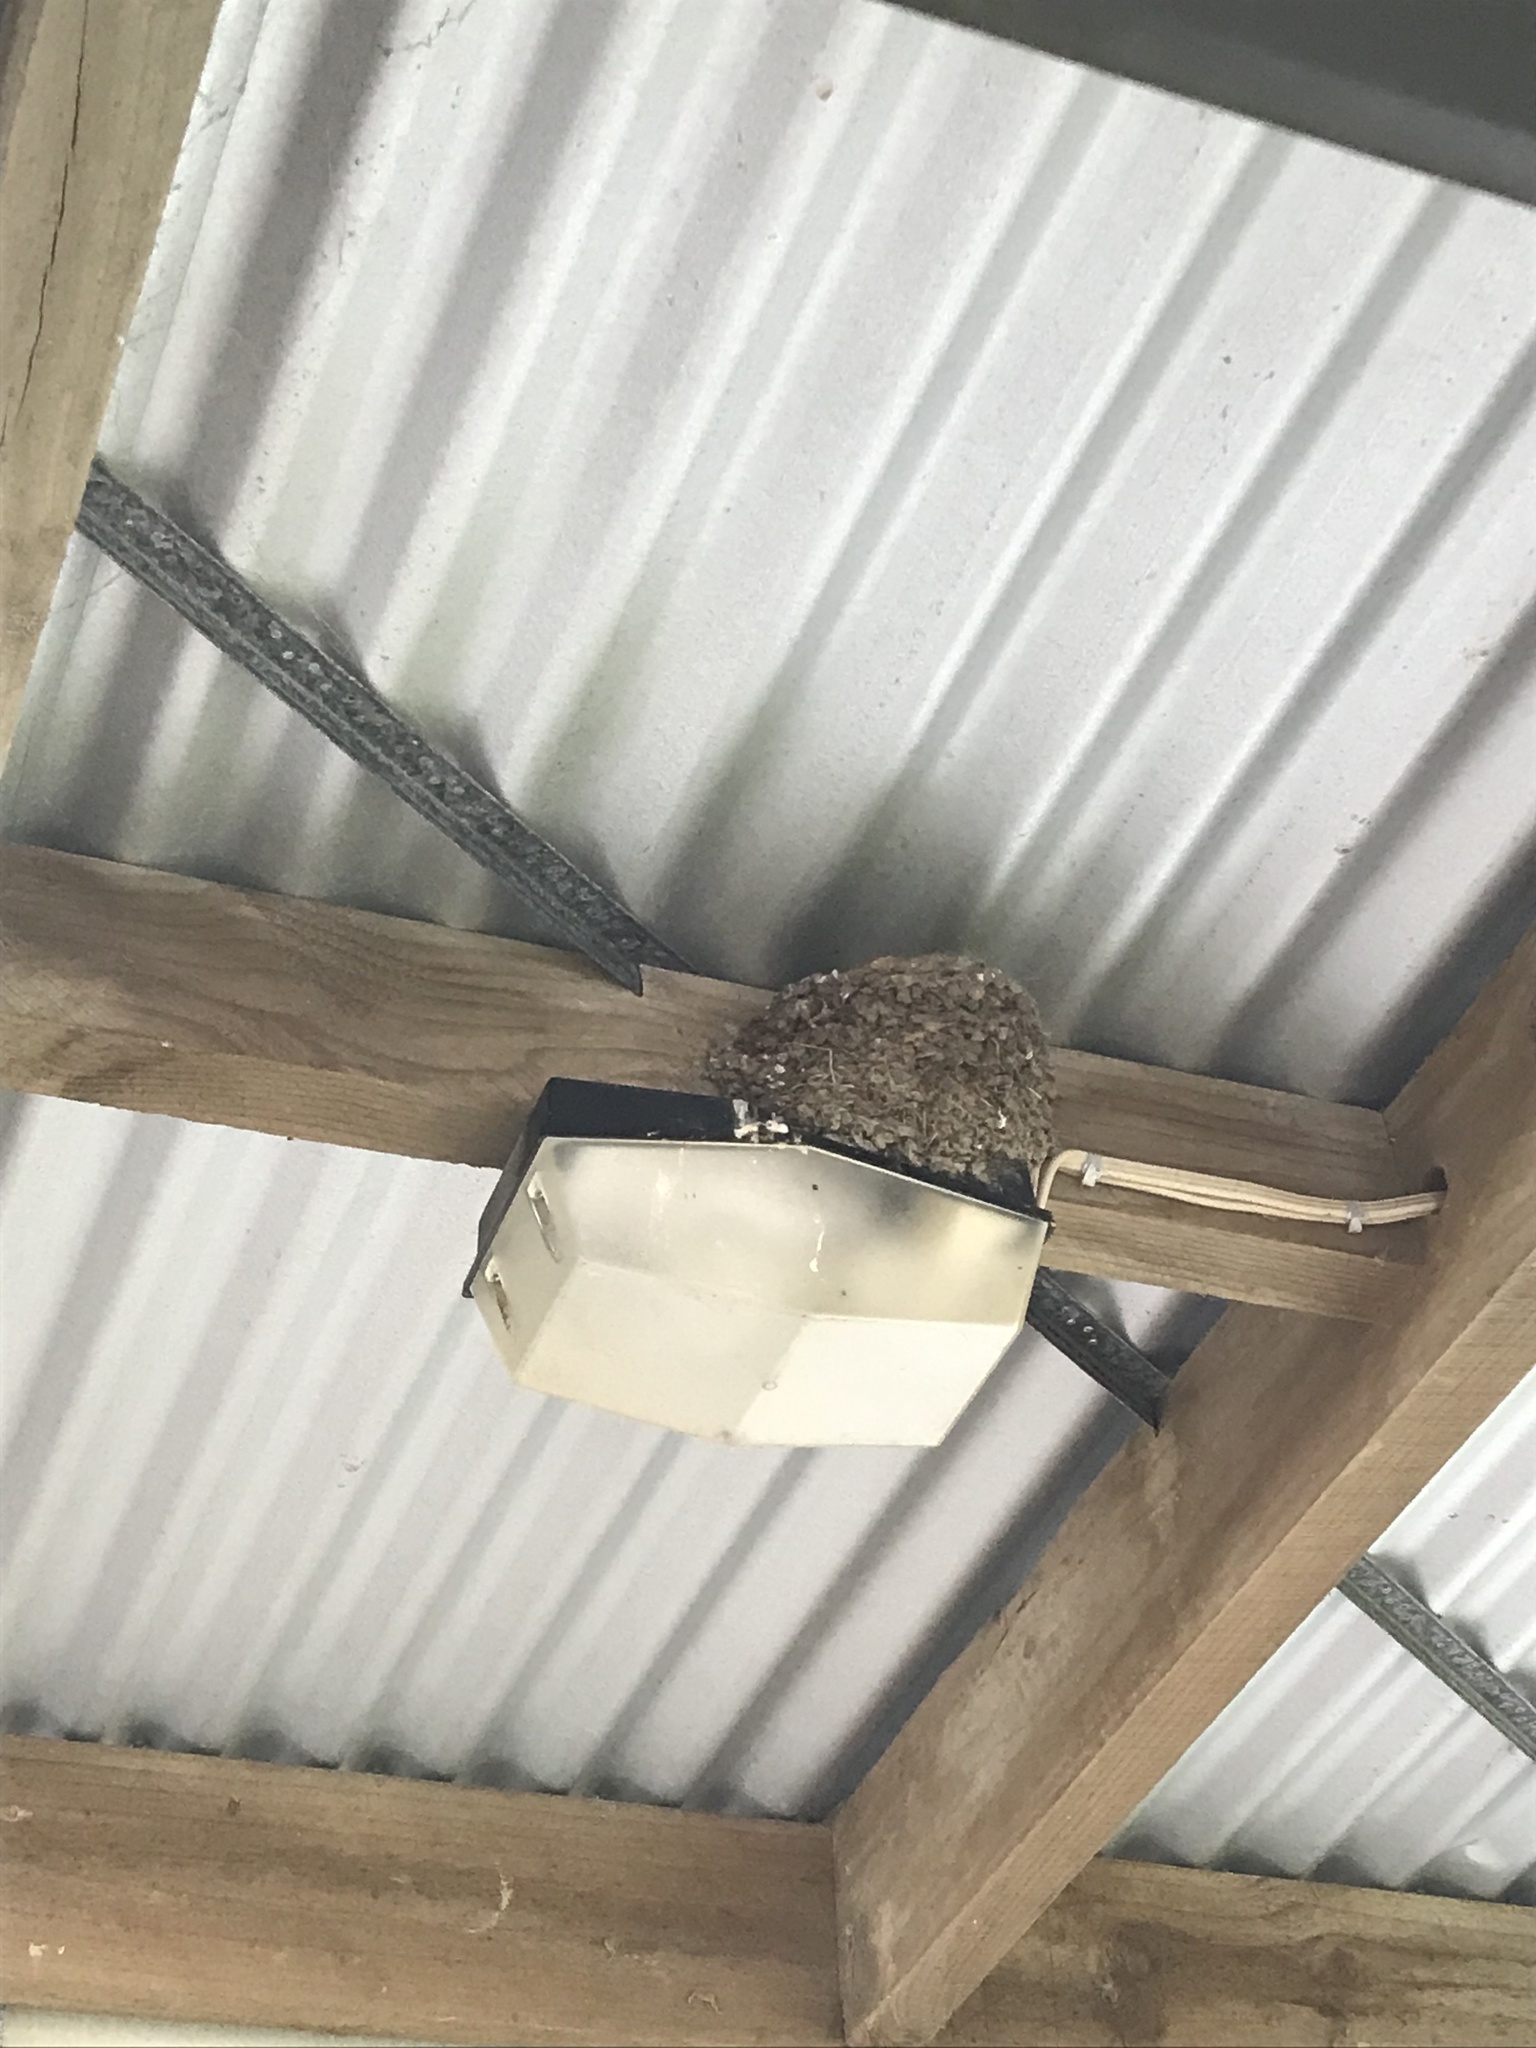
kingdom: Animalia
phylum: Chordata
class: Aves
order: Passeriformes
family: Hirundinidae
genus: Hirundo
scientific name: Hirundo neoxena
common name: Welcome swallow
